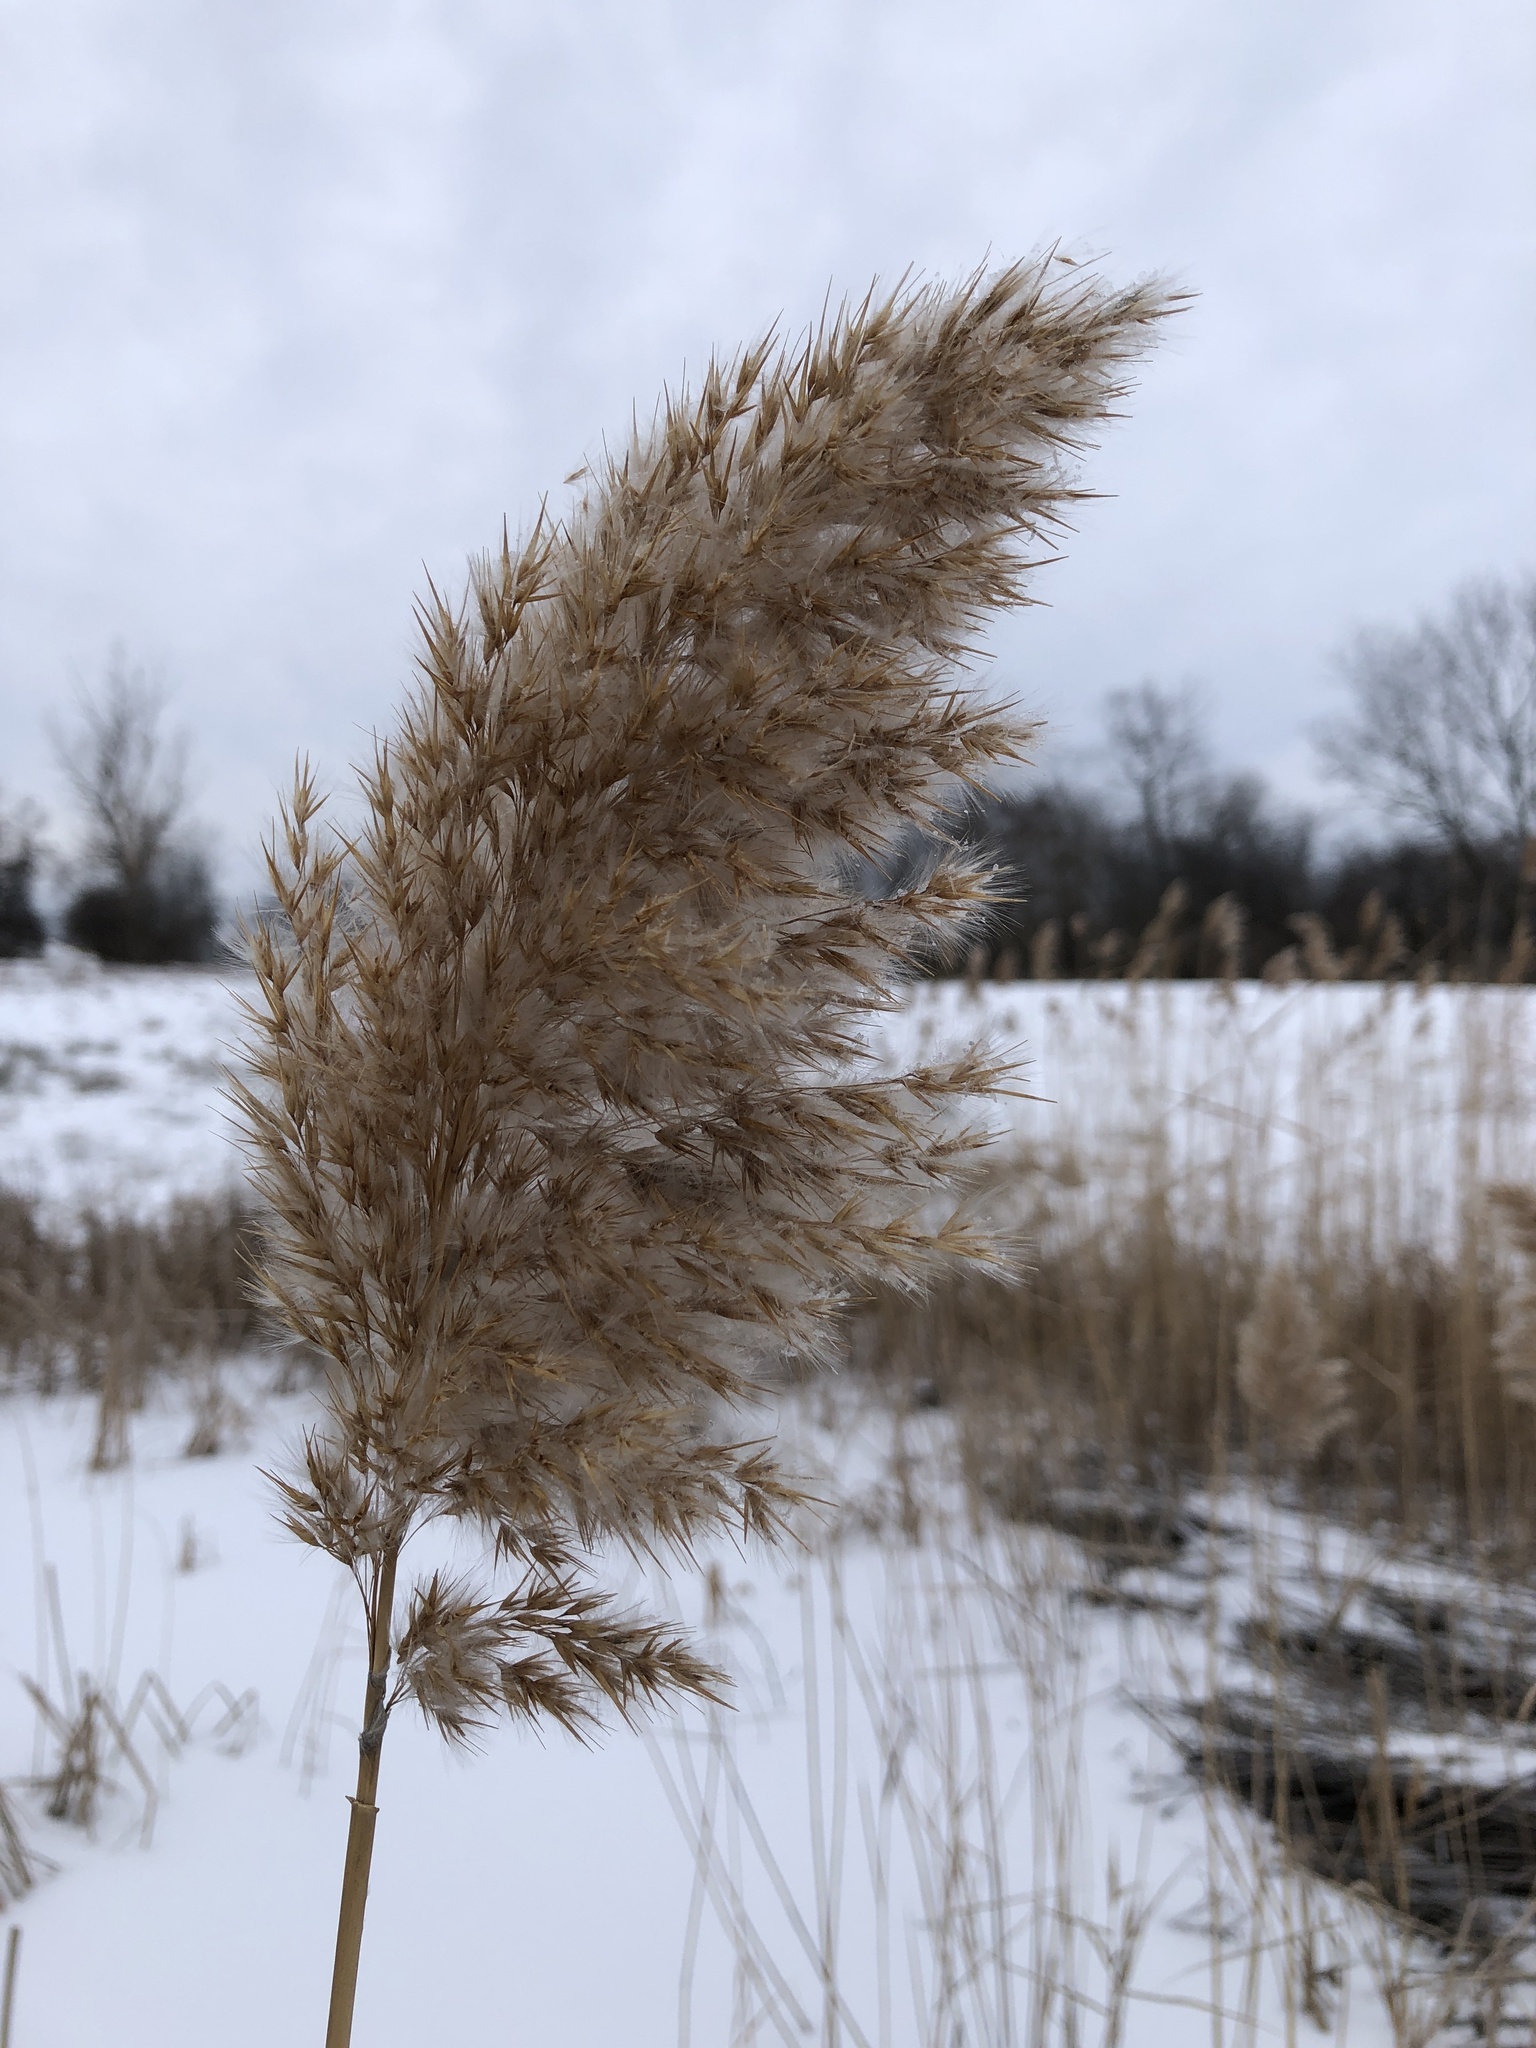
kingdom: Plantae
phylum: Tracheophyta
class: Liliopsida
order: Poales
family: Poaceae
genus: Phragmites
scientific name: Phragmites australis
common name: Common reed
